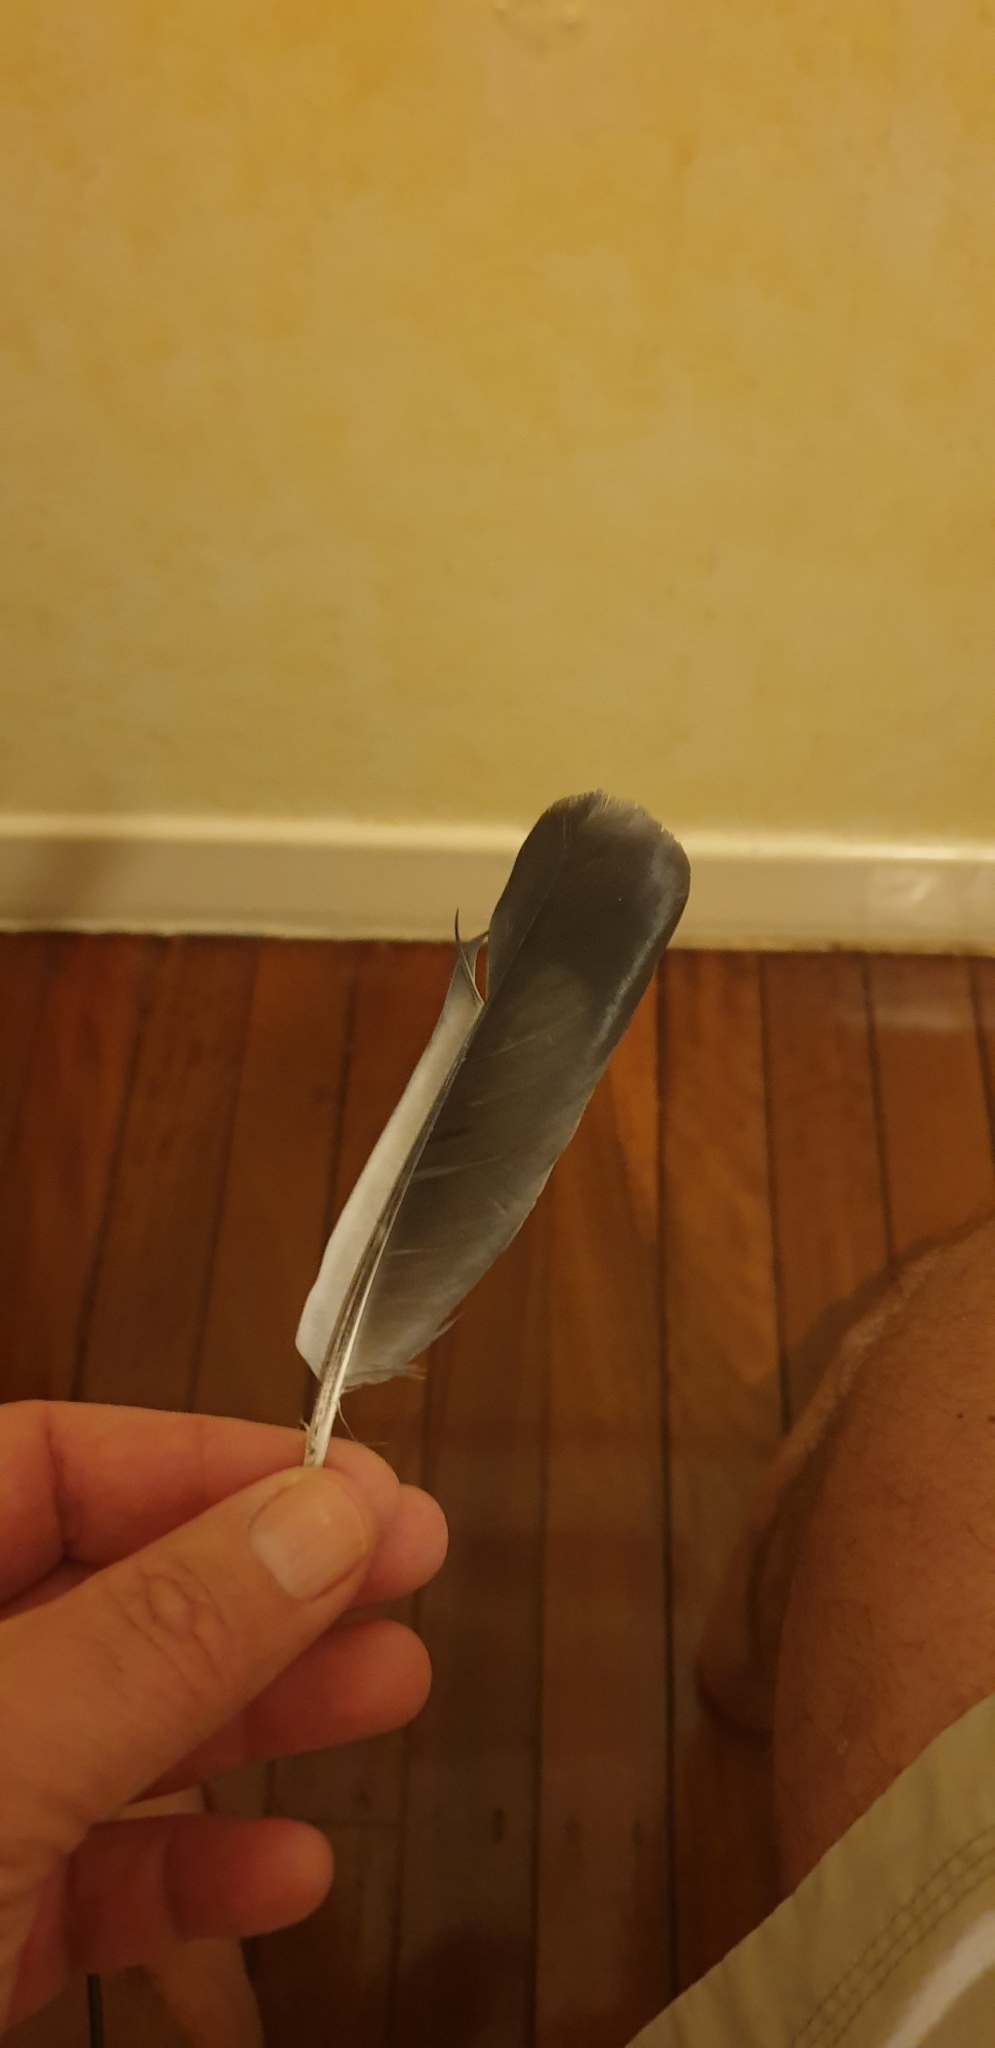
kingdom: Animalia
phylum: Chordata
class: Aves
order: Columbiformes
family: Columbidae
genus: Columba
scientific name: Columba livia
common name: Rock pigeon
